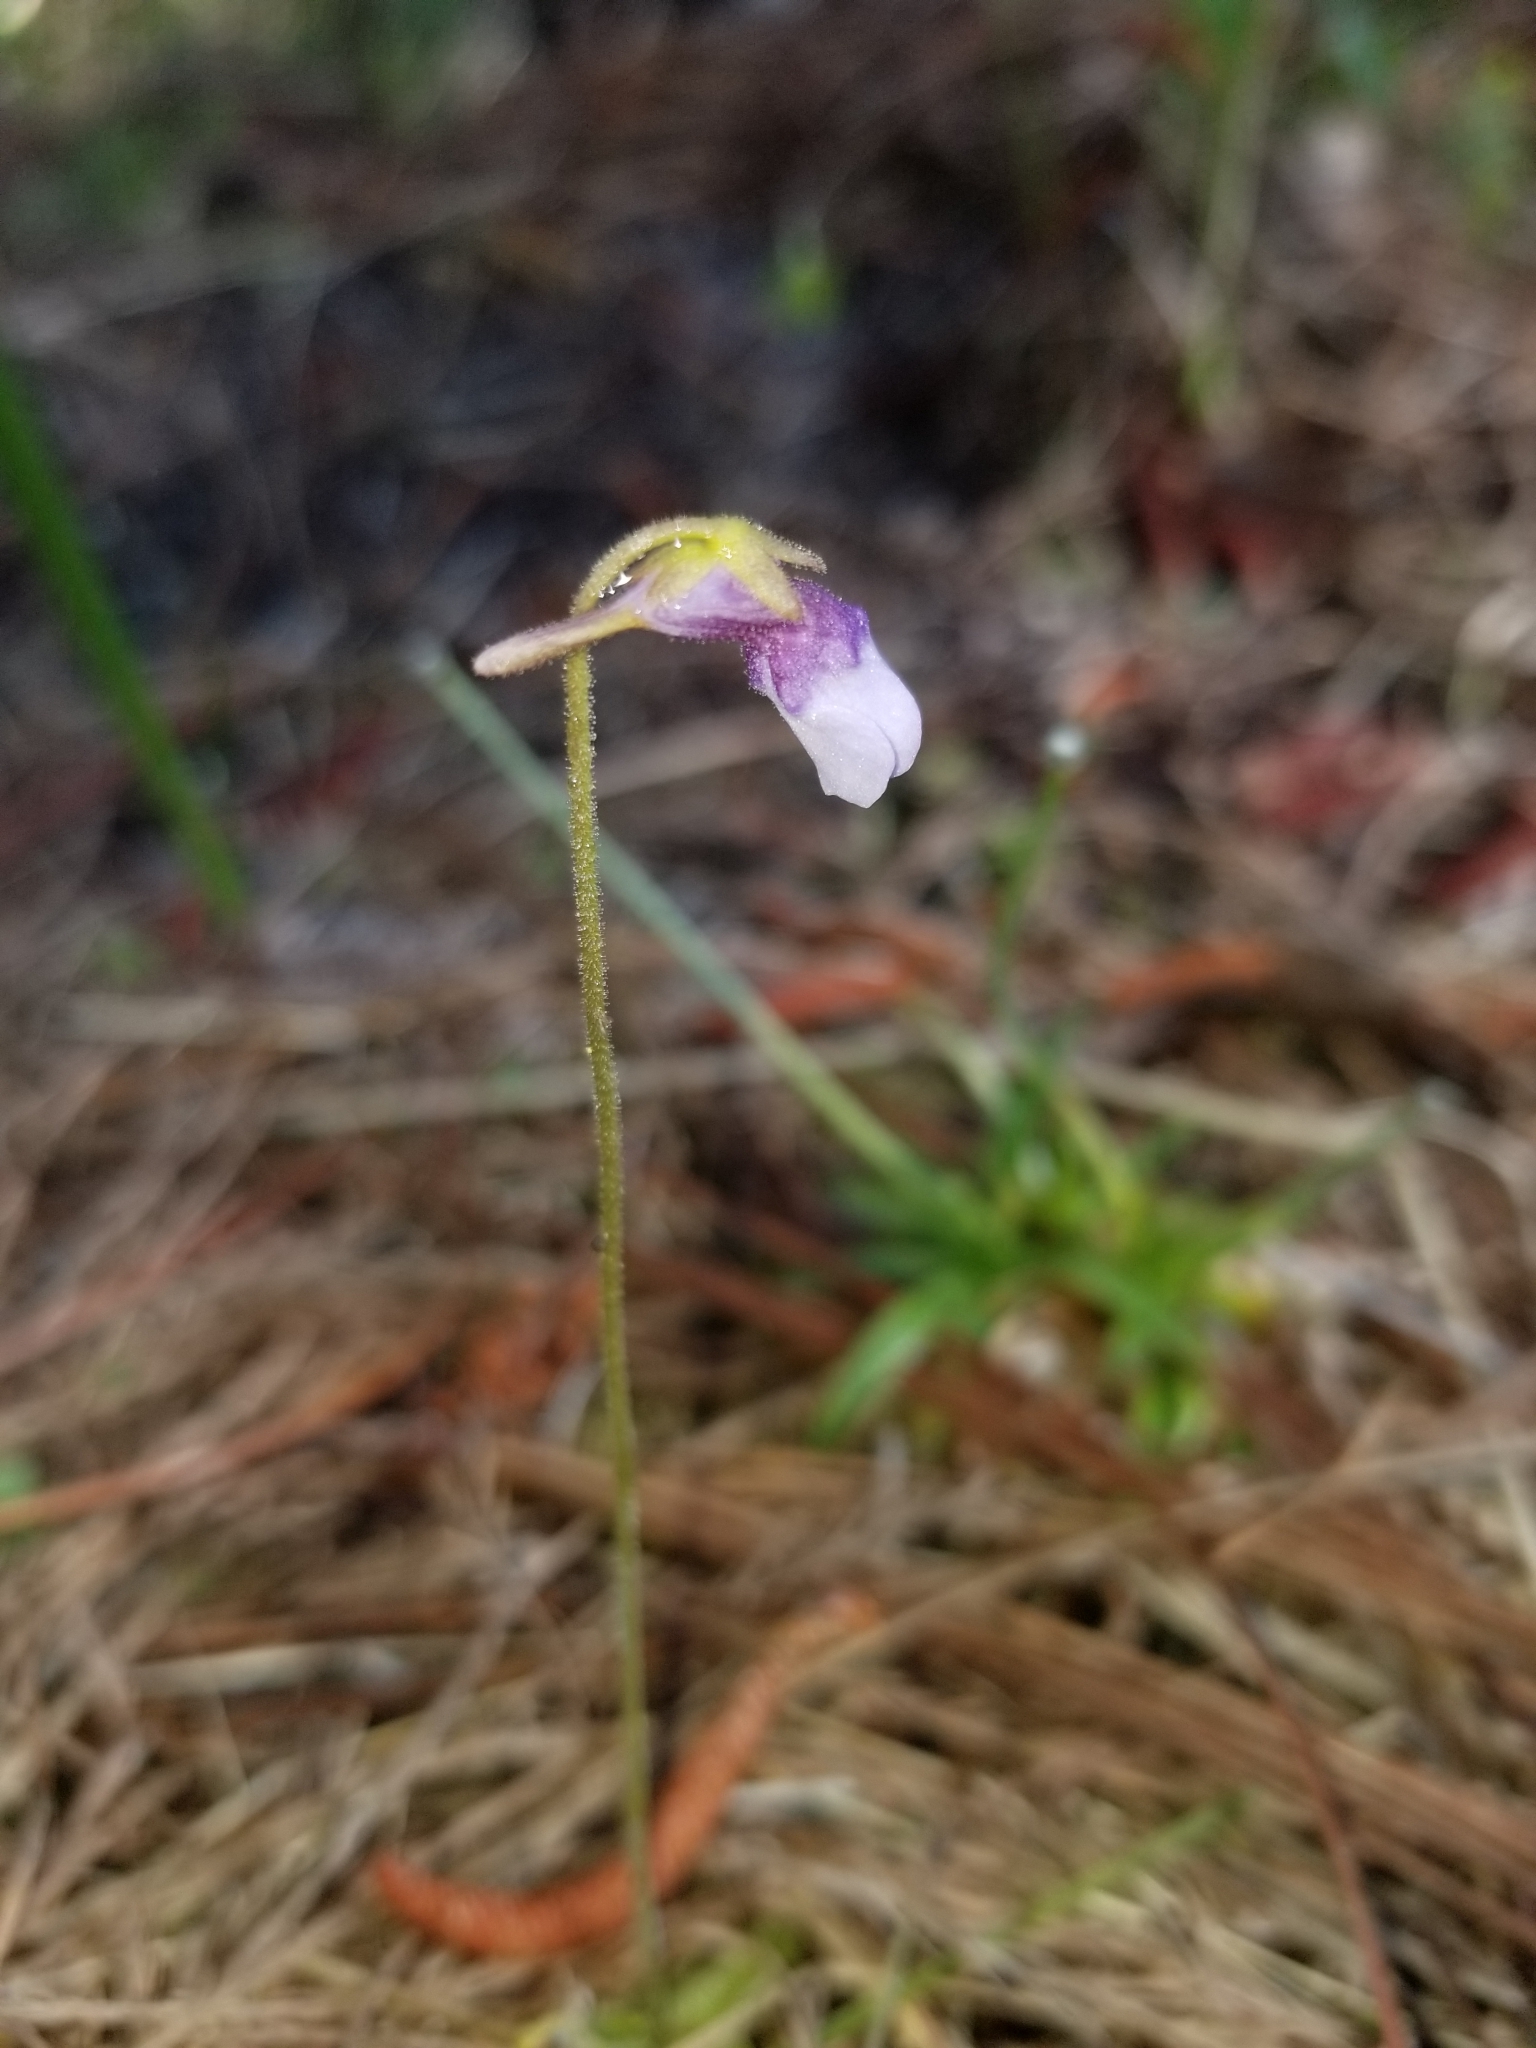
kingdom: Plantae
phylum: Tracheophyta
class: Magnoliopsida
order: Lamiales
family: Lentibulariaceae
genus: Pinguicula
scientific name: Pinguicula pumila
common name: Small butterwort
